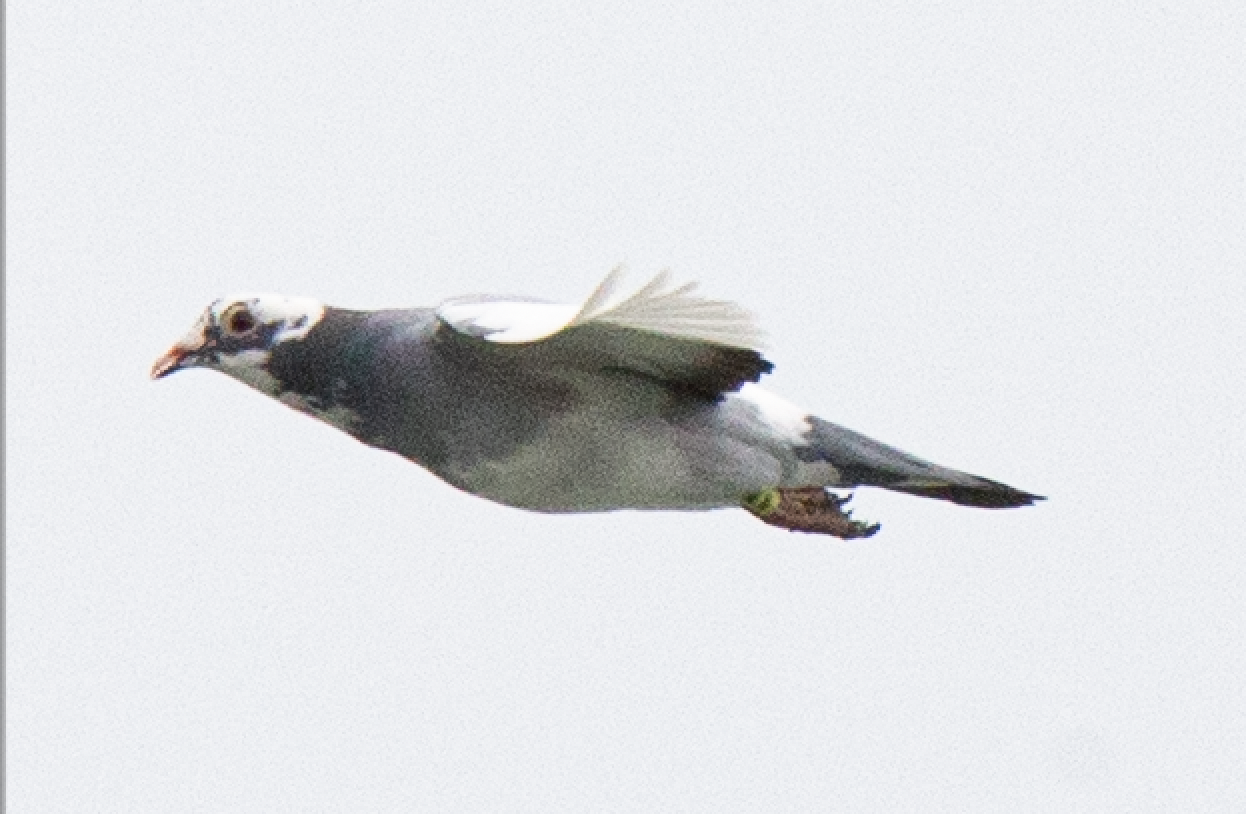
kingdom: Animalia
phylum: Chordata
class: Aves
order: Columbiformes
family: Columbidae
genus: Columba
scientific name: Columba livia
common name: Rock pigeon
